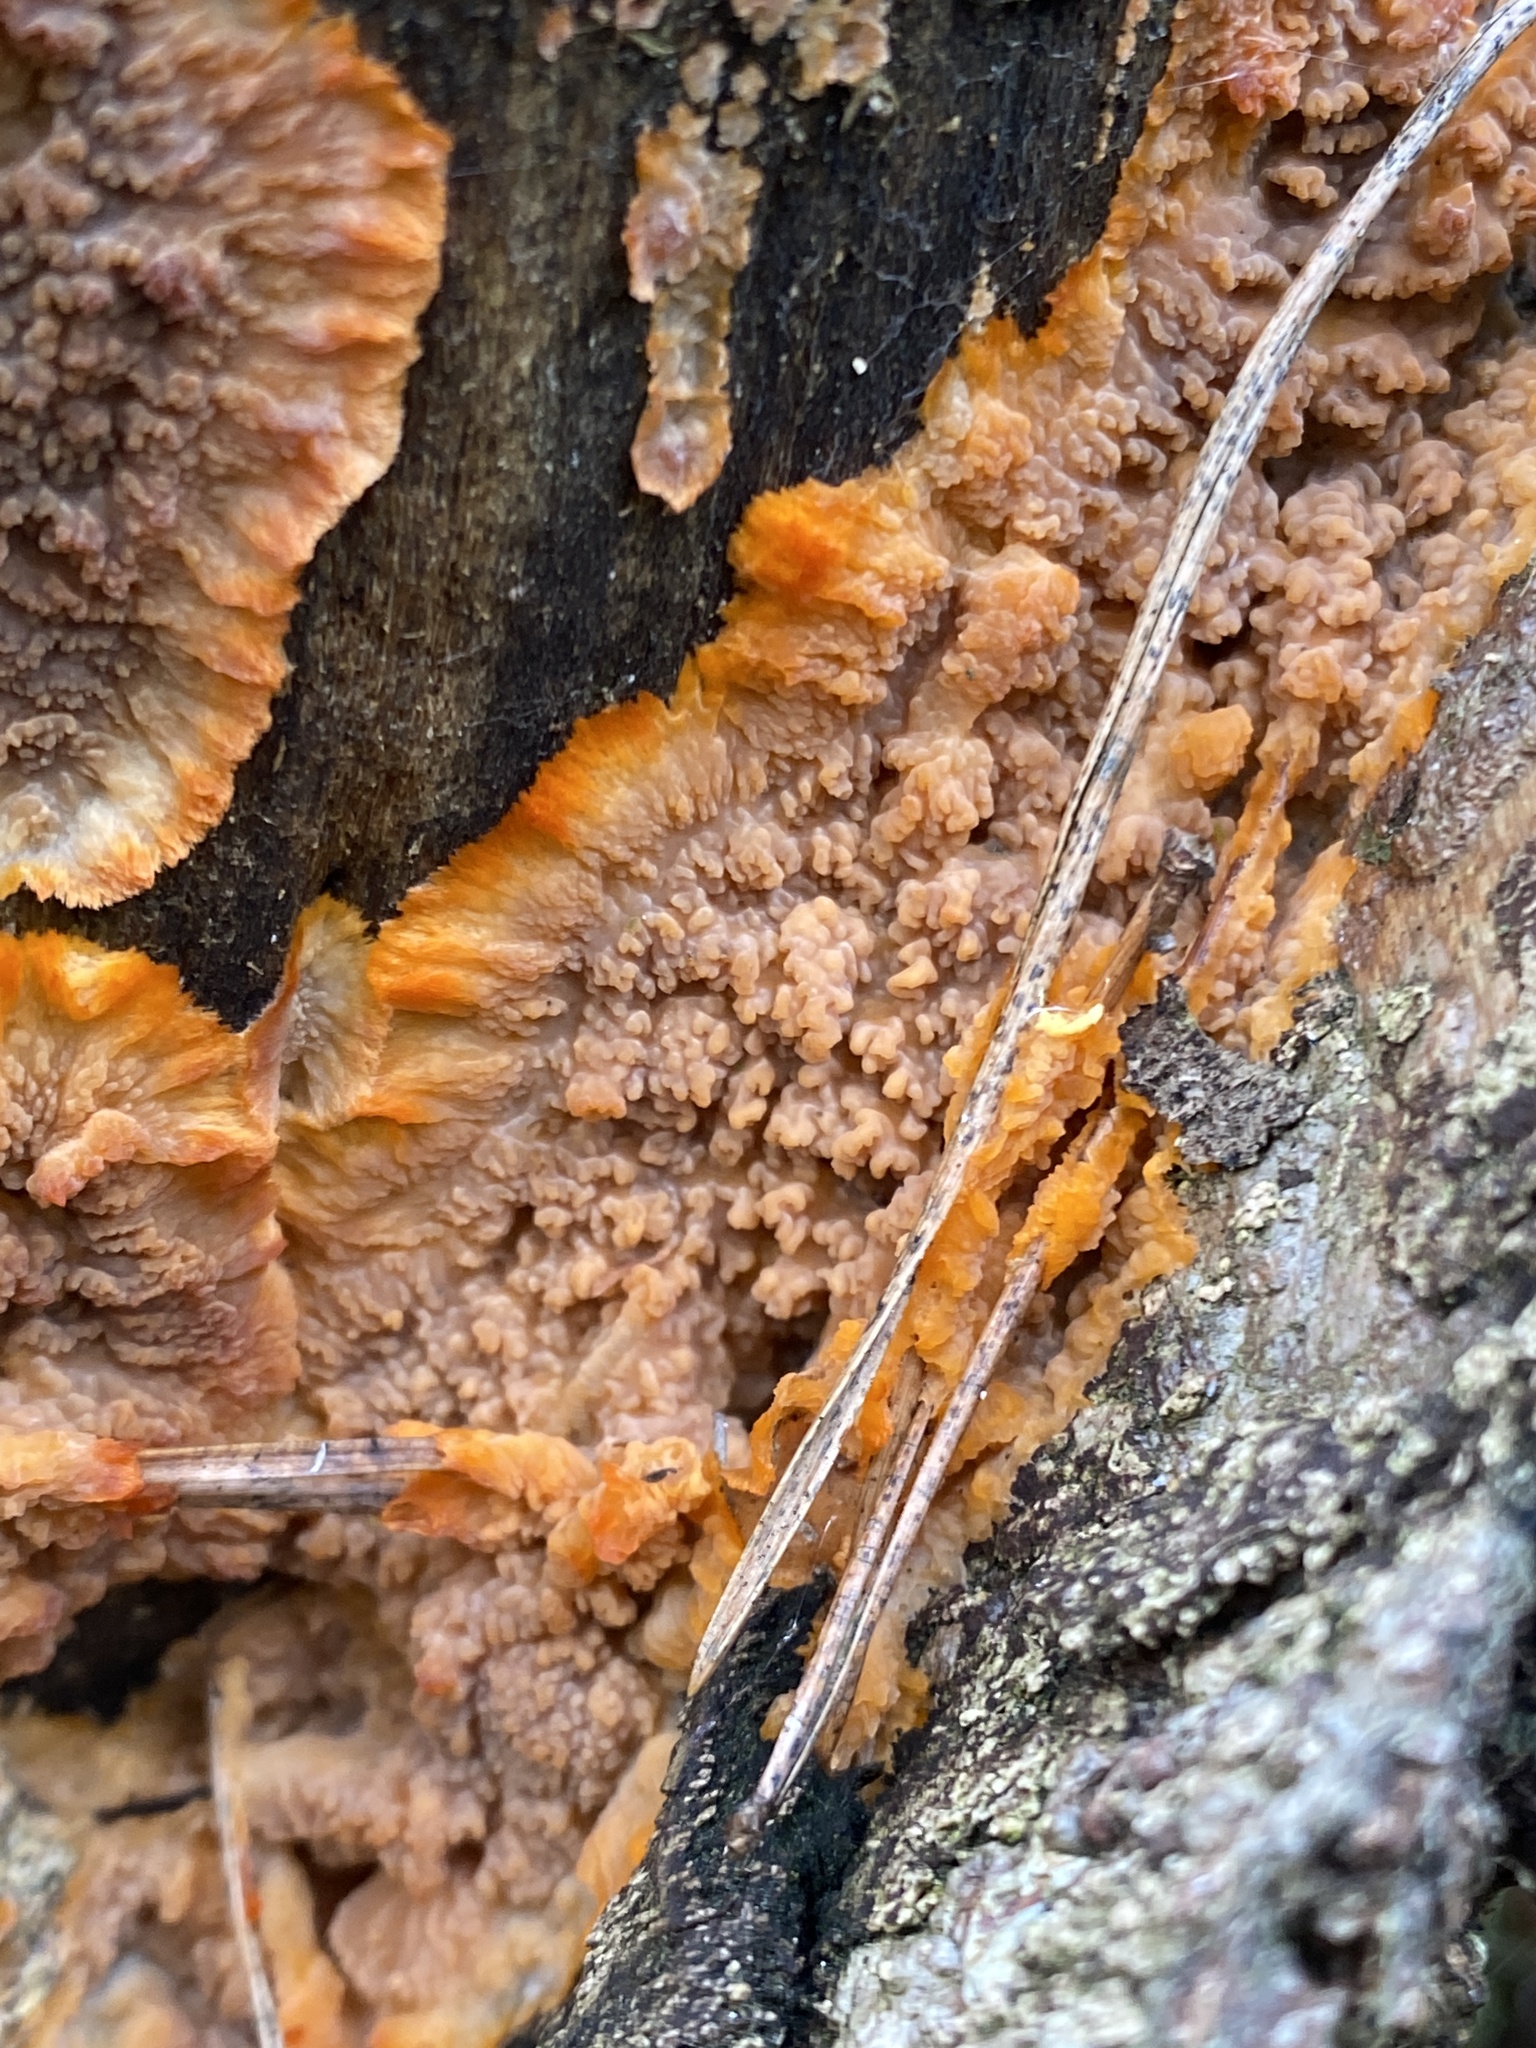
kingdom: Fungi
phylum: Basidiomycota
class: Agaricomycetes
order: Polyporales
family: Meruliaceae
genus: Phlebia
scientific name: Phlebia radiata
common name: Wrinkled crust
